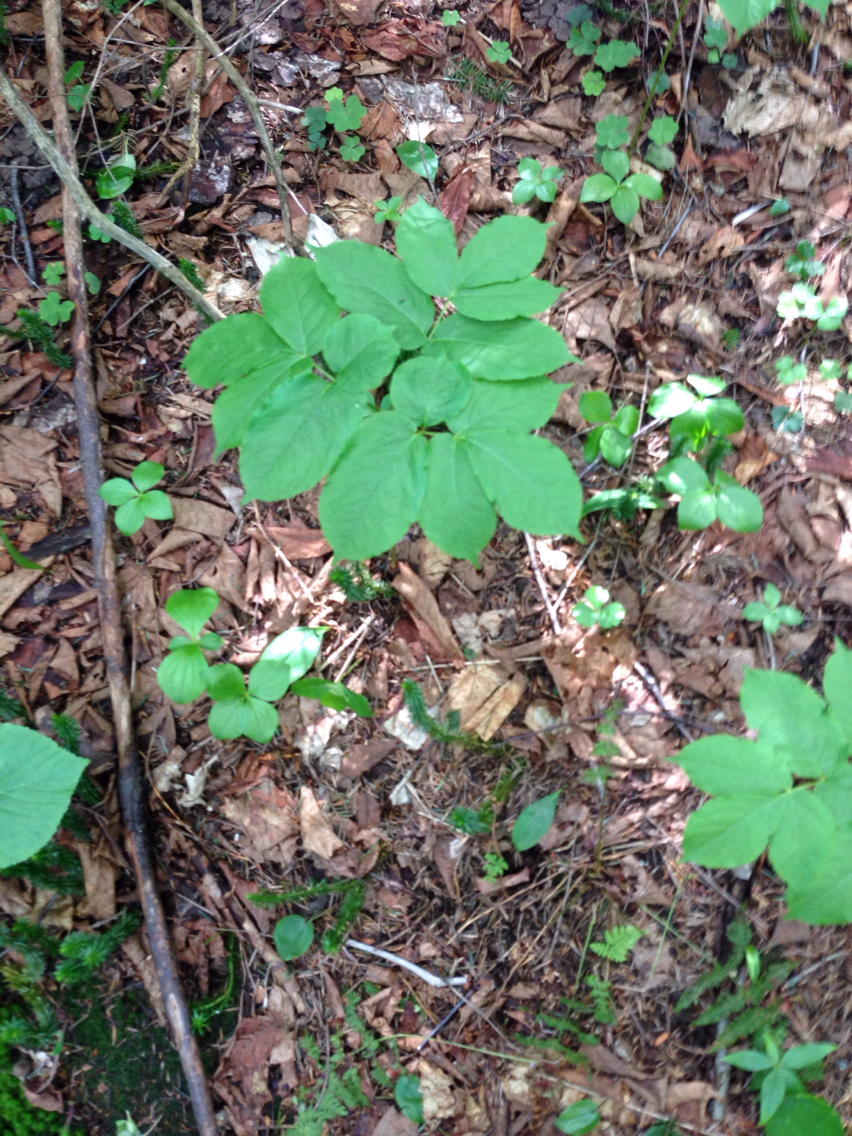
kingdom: Plantae
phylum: Tracheophyta
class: Magnoliopsida
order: Apiales
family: Araliaceae
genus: Aralia
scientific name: Aralia nudicaulis
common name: Wild sarsaparilla
